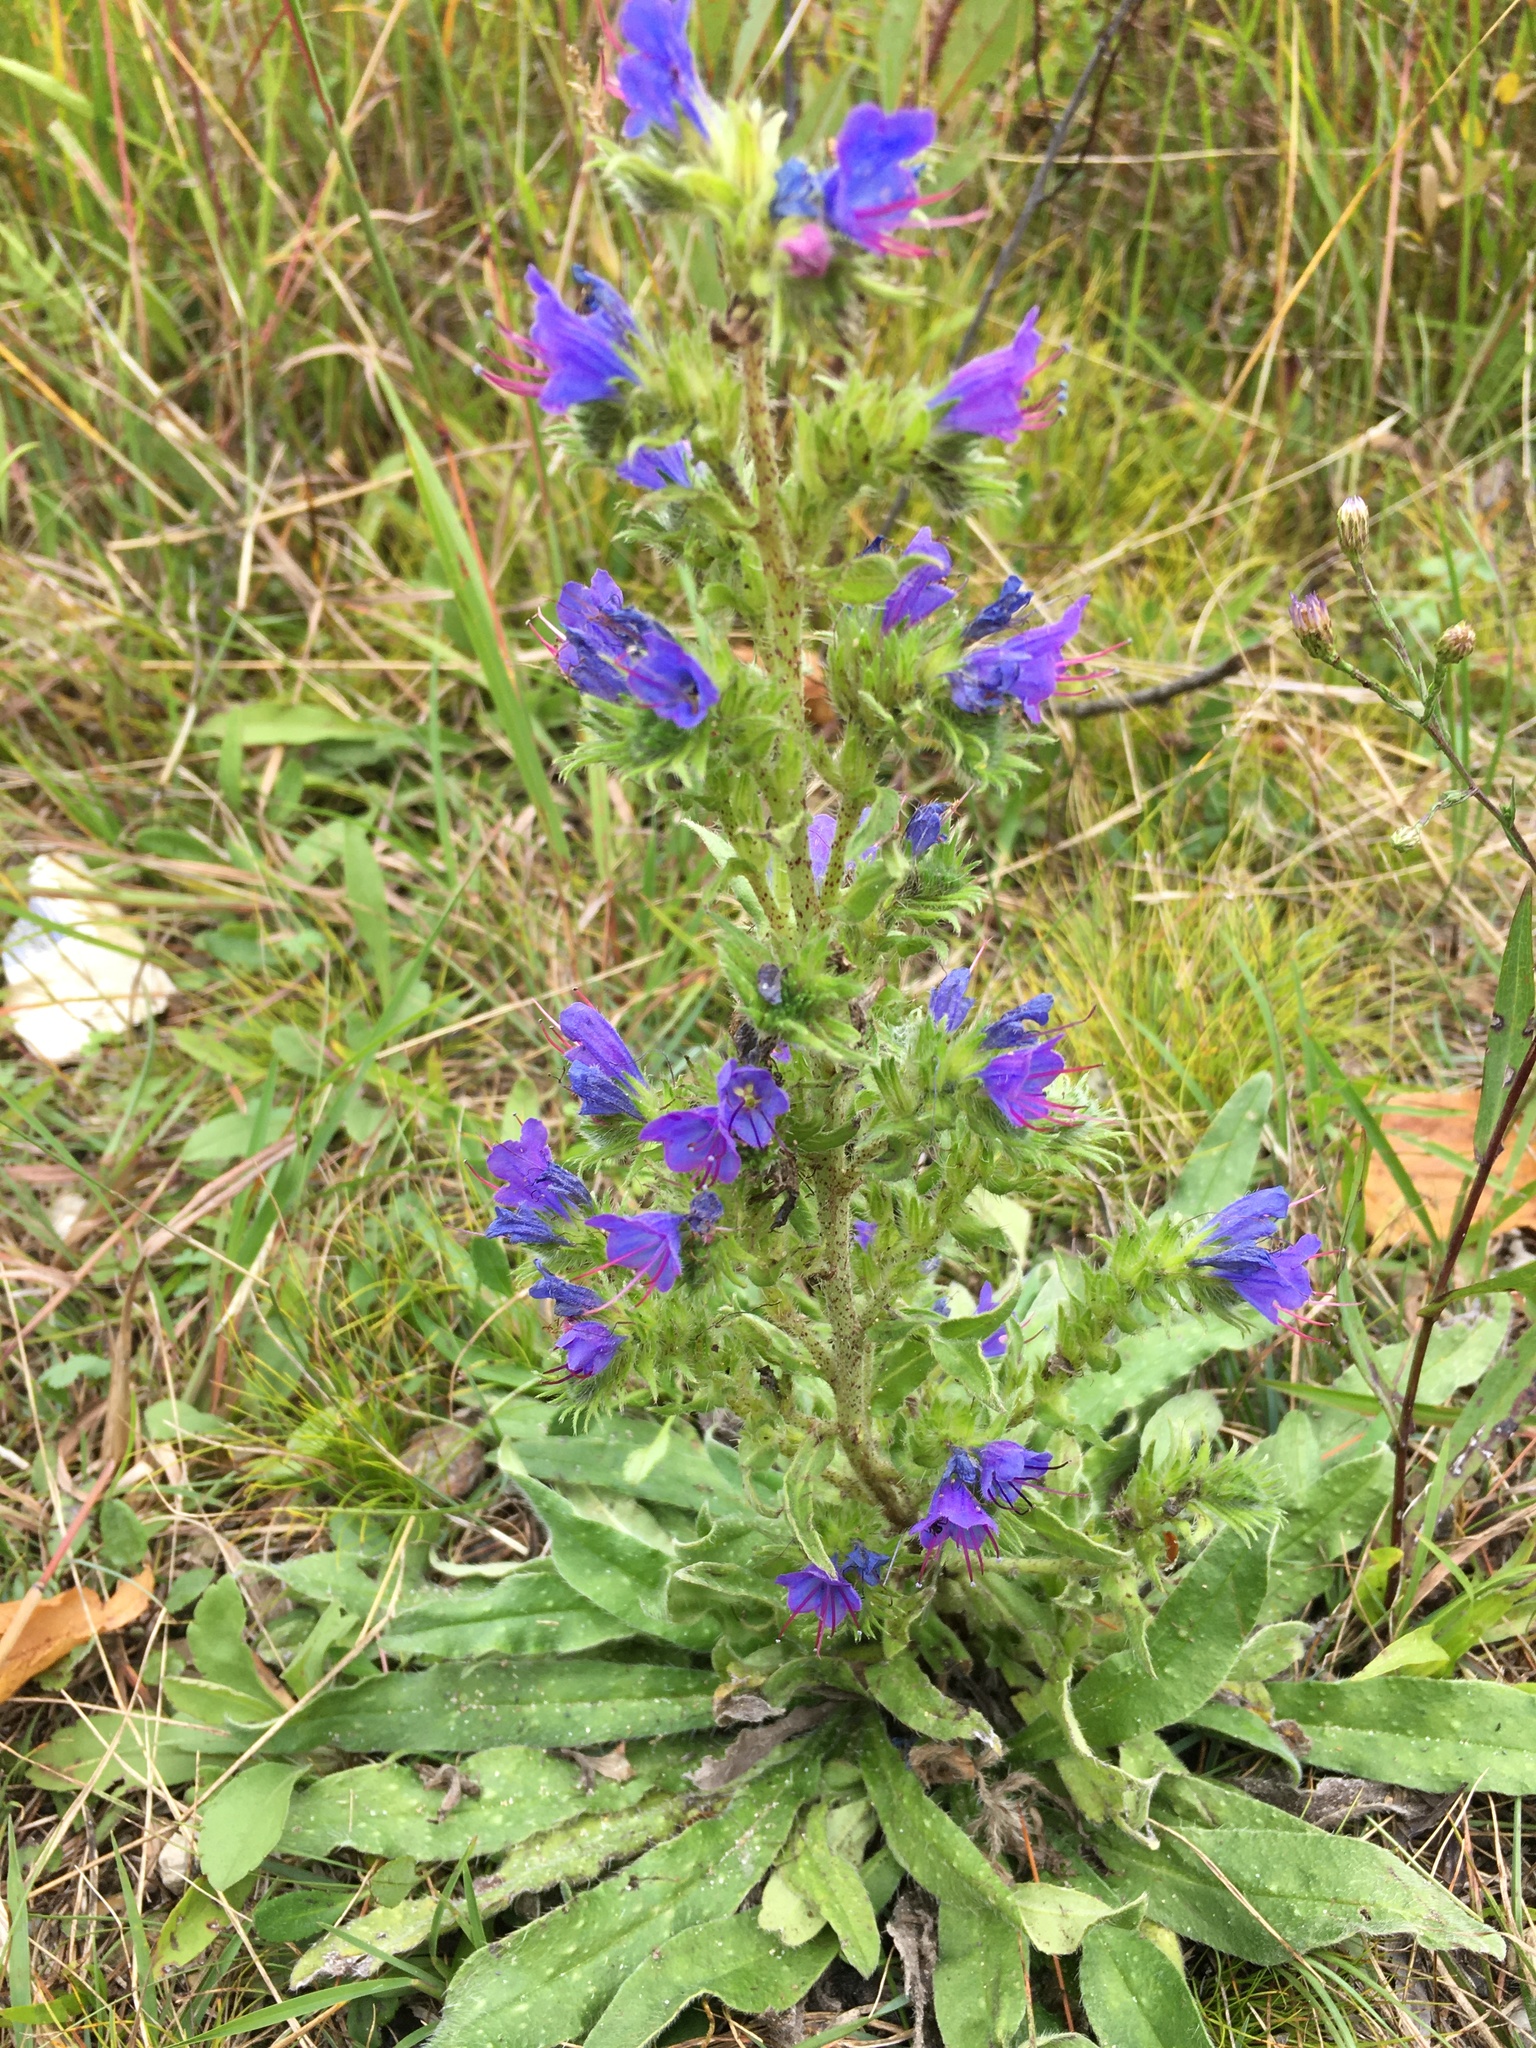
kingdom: Plantae
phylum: Tracheophyta
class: Magnoliopsida
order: Boraginales
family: Boraginaceae
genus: Echium
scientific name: Echium vulgare
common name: Common viper's bugloss
